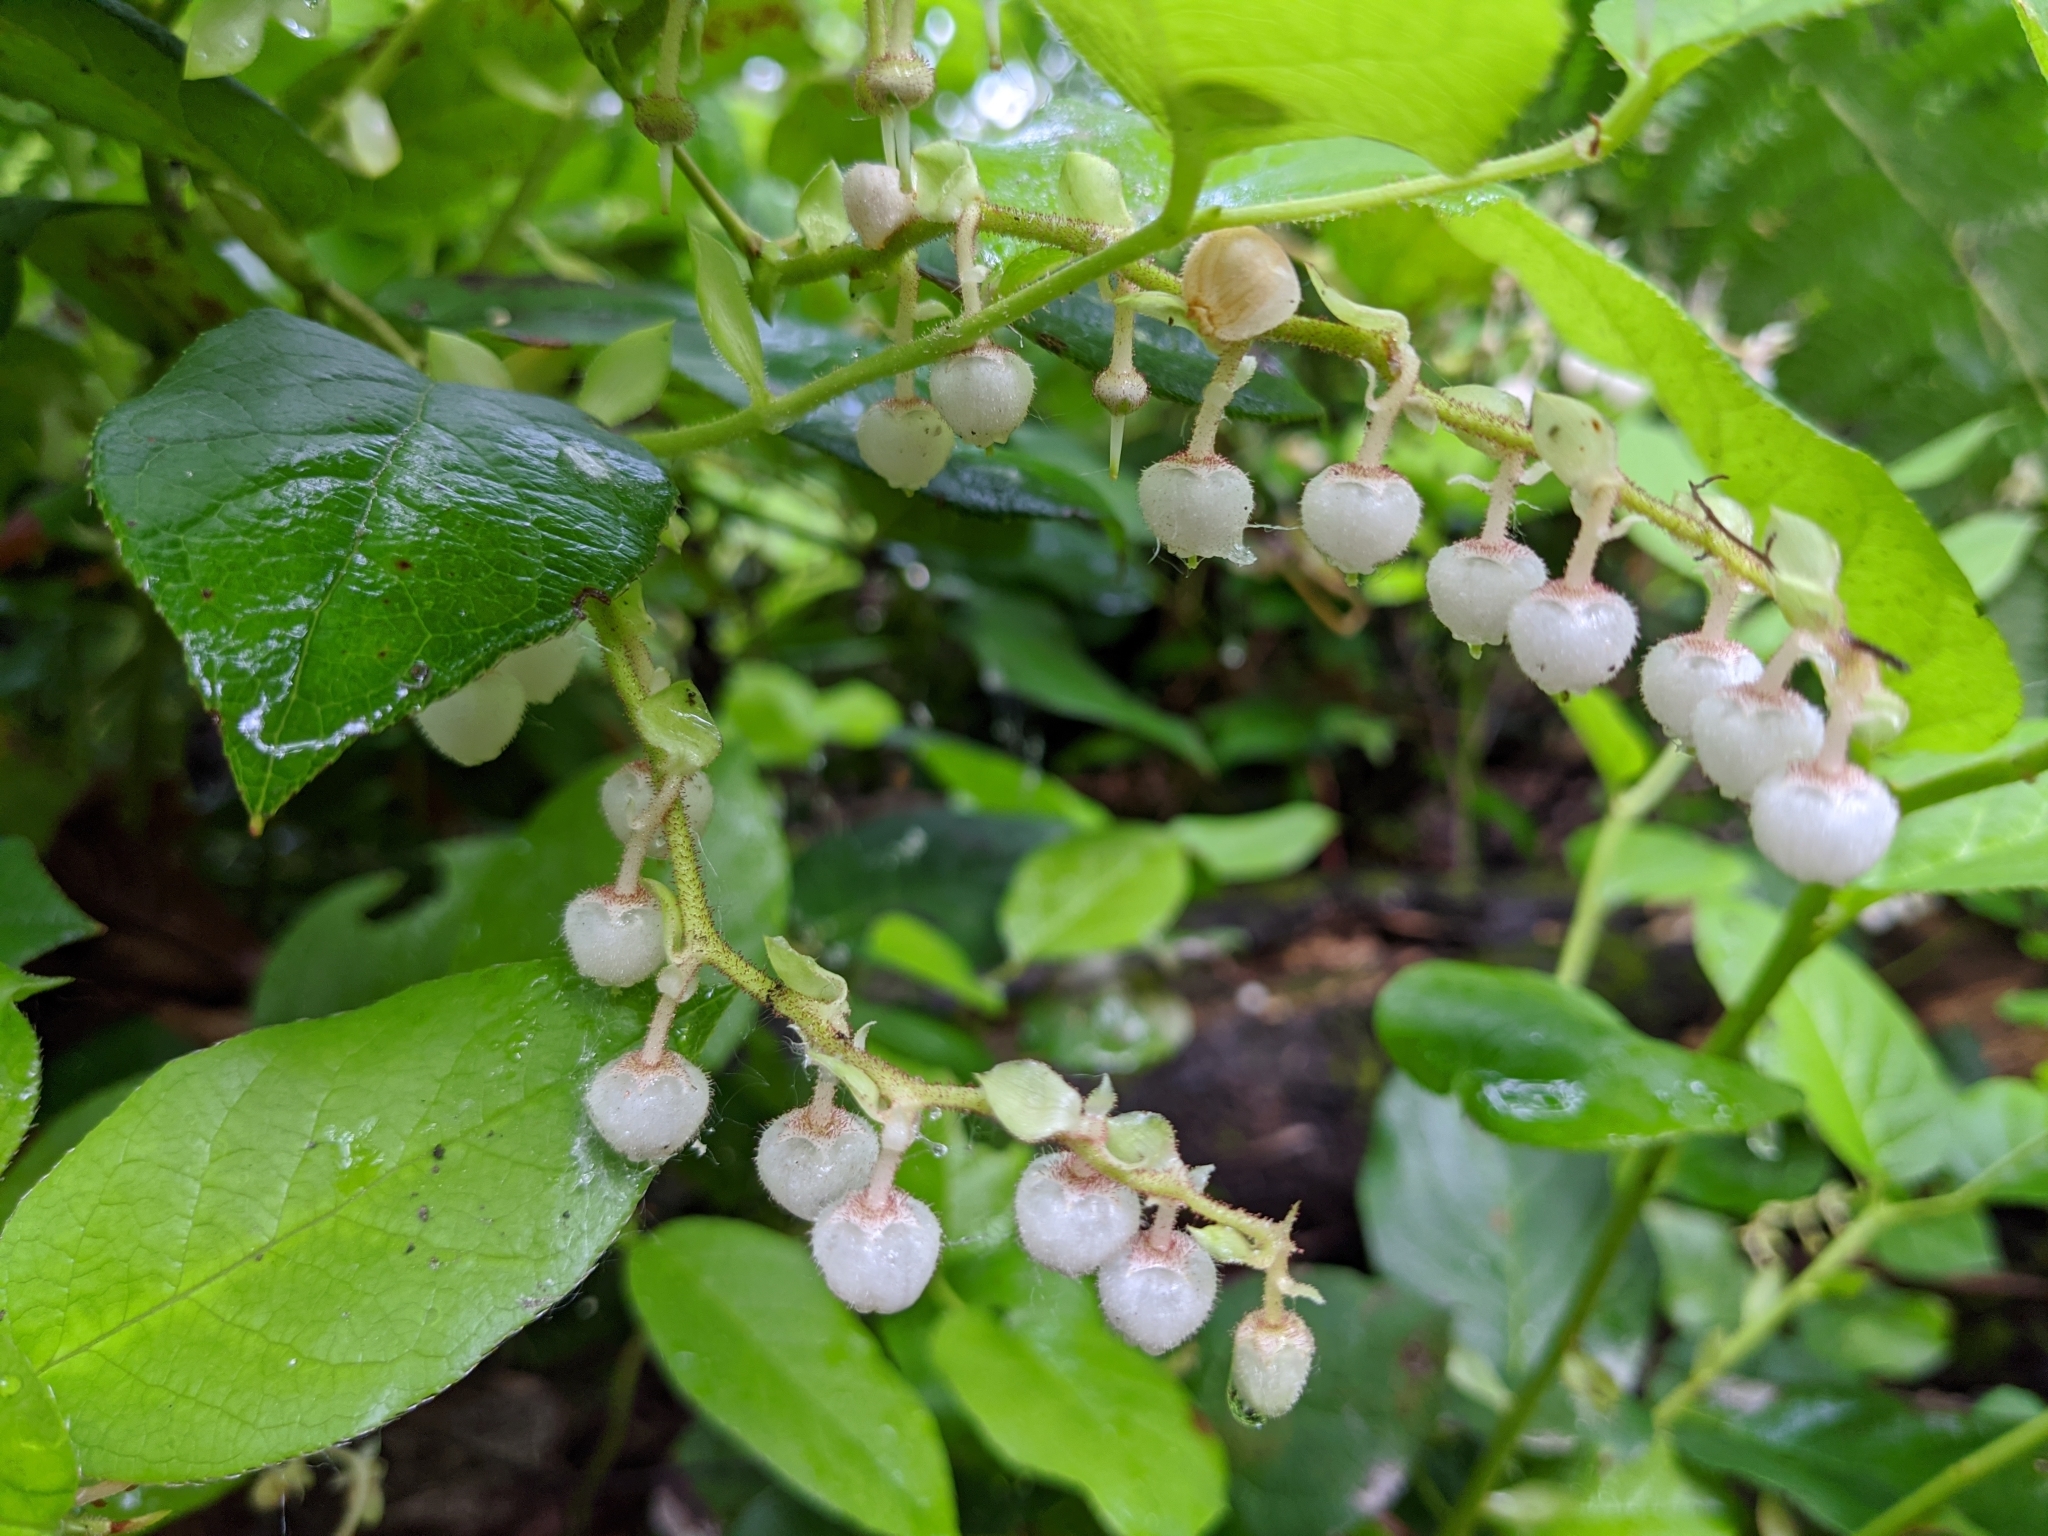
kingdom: Plantae
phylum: Tracheophyta
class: Magnoliopsida
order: Ericales
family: Ericaceae
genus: Gaultheria
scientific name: Gaultheria shallon
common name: Shallon
